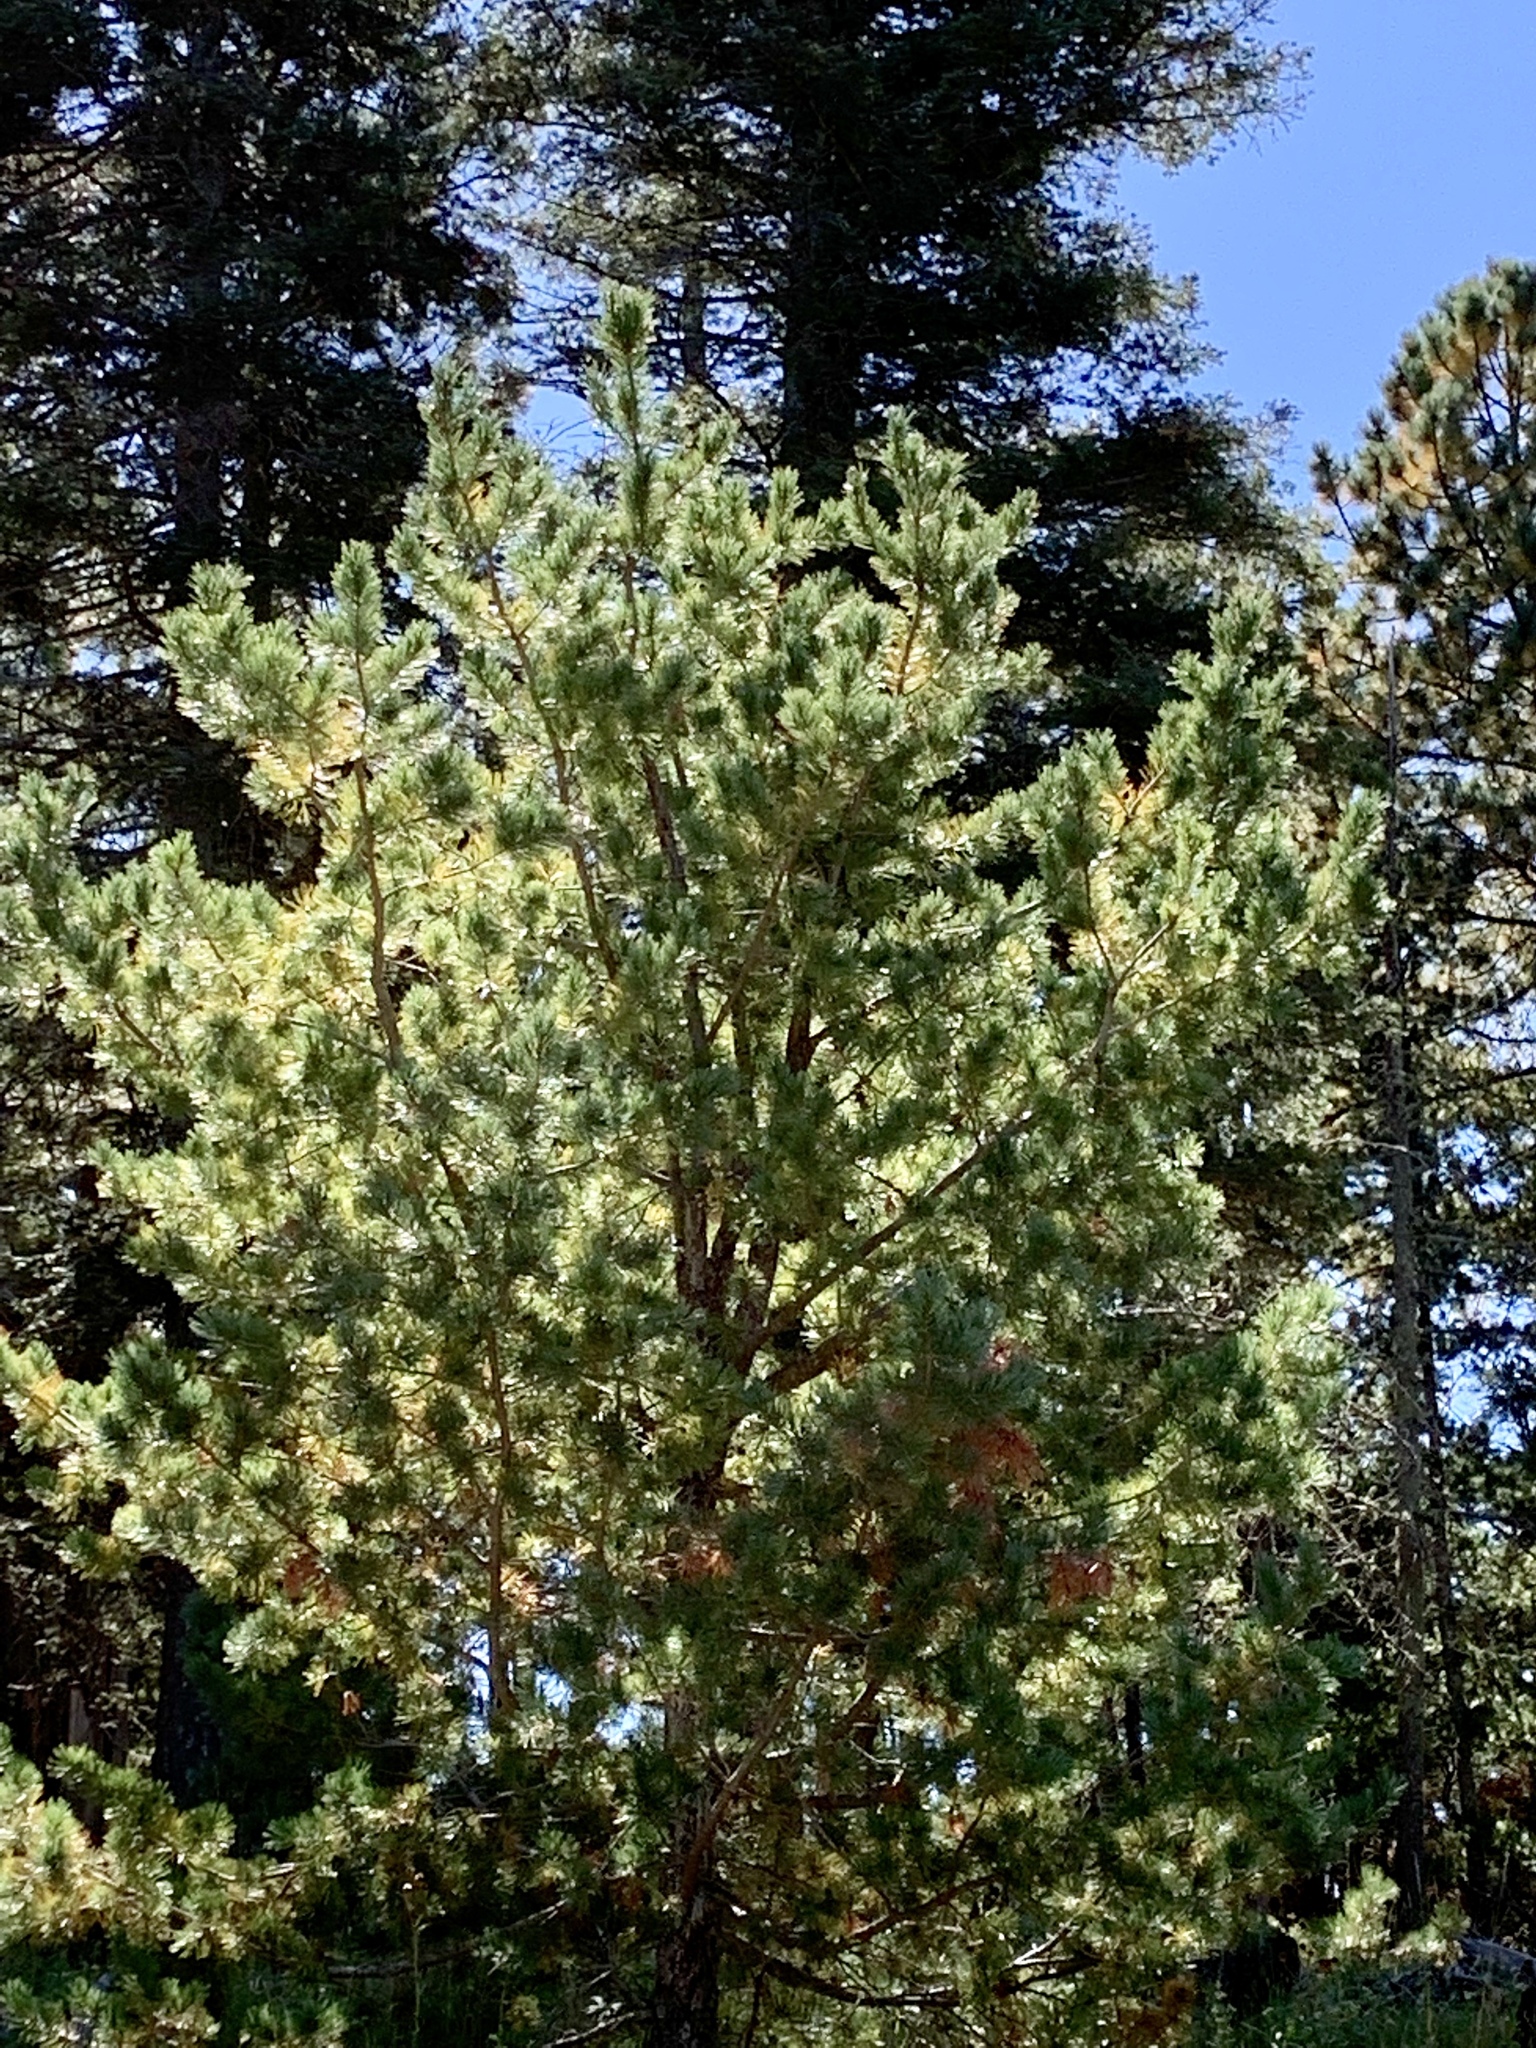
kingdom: Plantae
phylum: Tracheophyta
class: Pinopsida
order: Pinales
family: Pinaceae
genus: Pinus
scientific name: Pinus strobiformis
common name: Southwestern white pine
